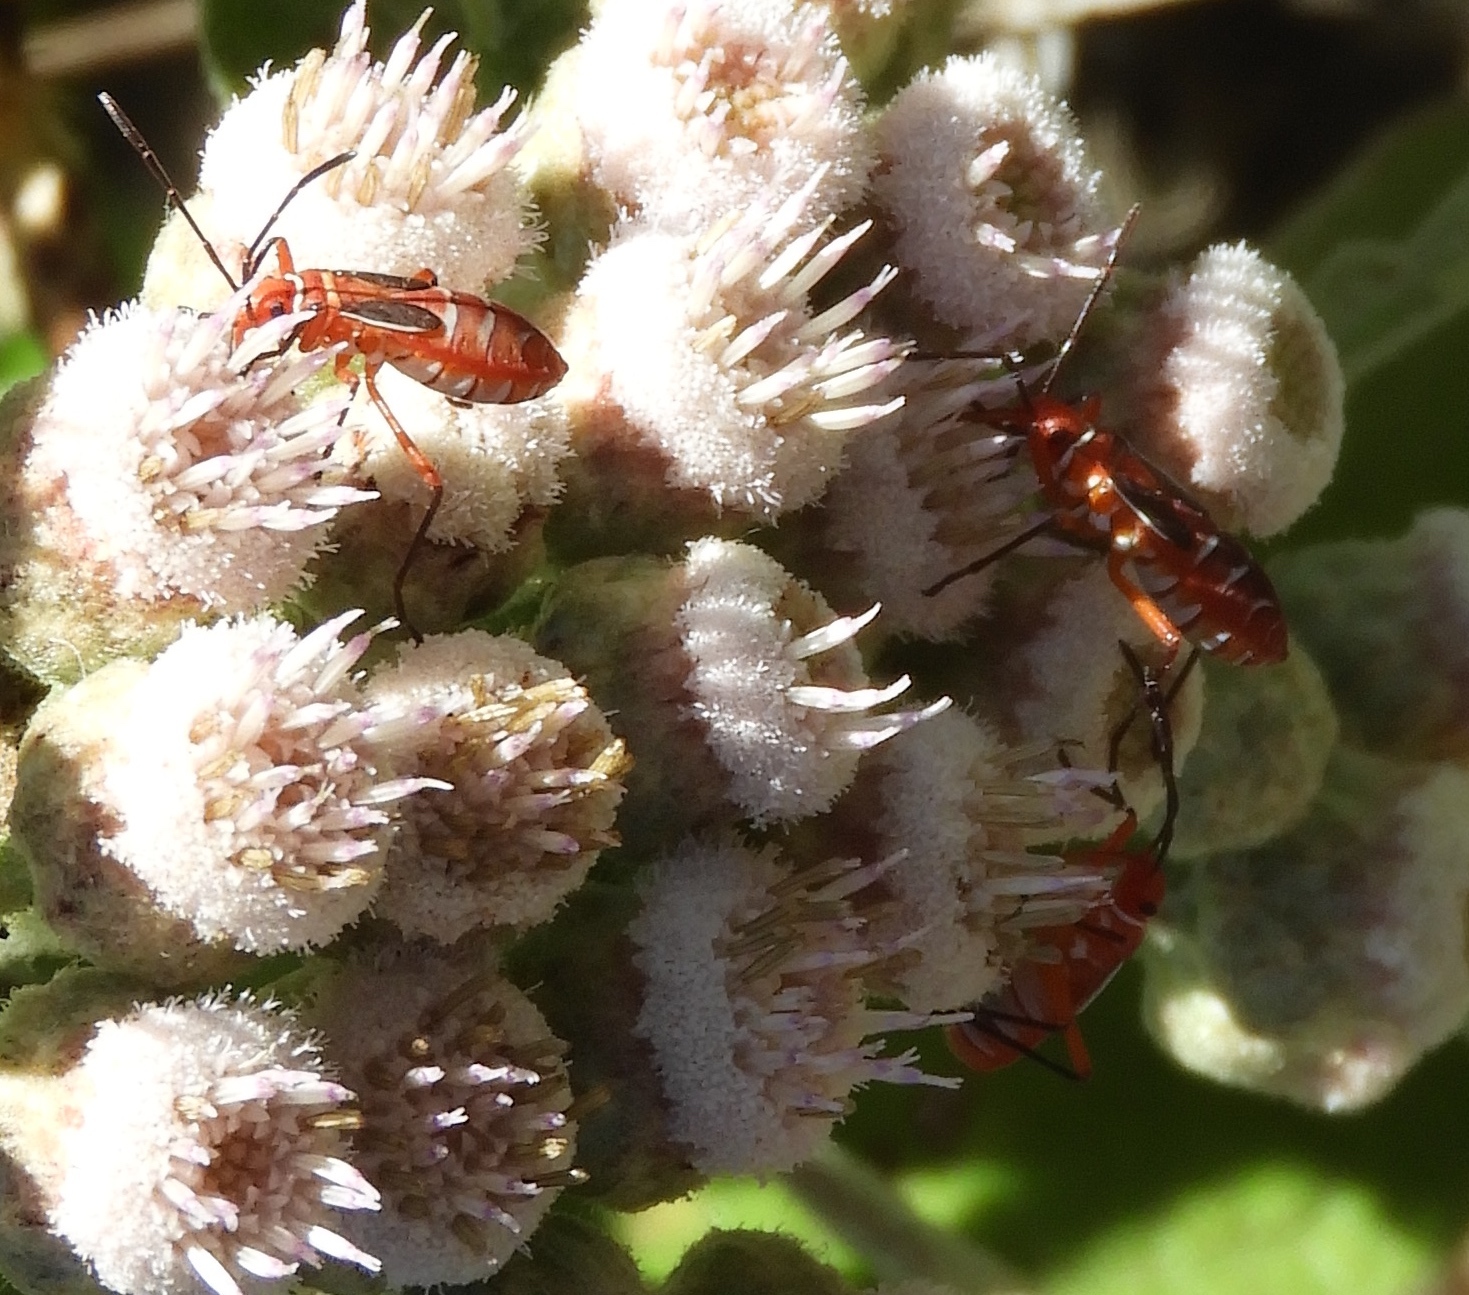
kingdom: Animalia
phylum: Arthropoda
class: Insecta
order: Hemiptera
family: Pyrrhocoridae
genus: Dysdercus
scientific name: Dysdercus
